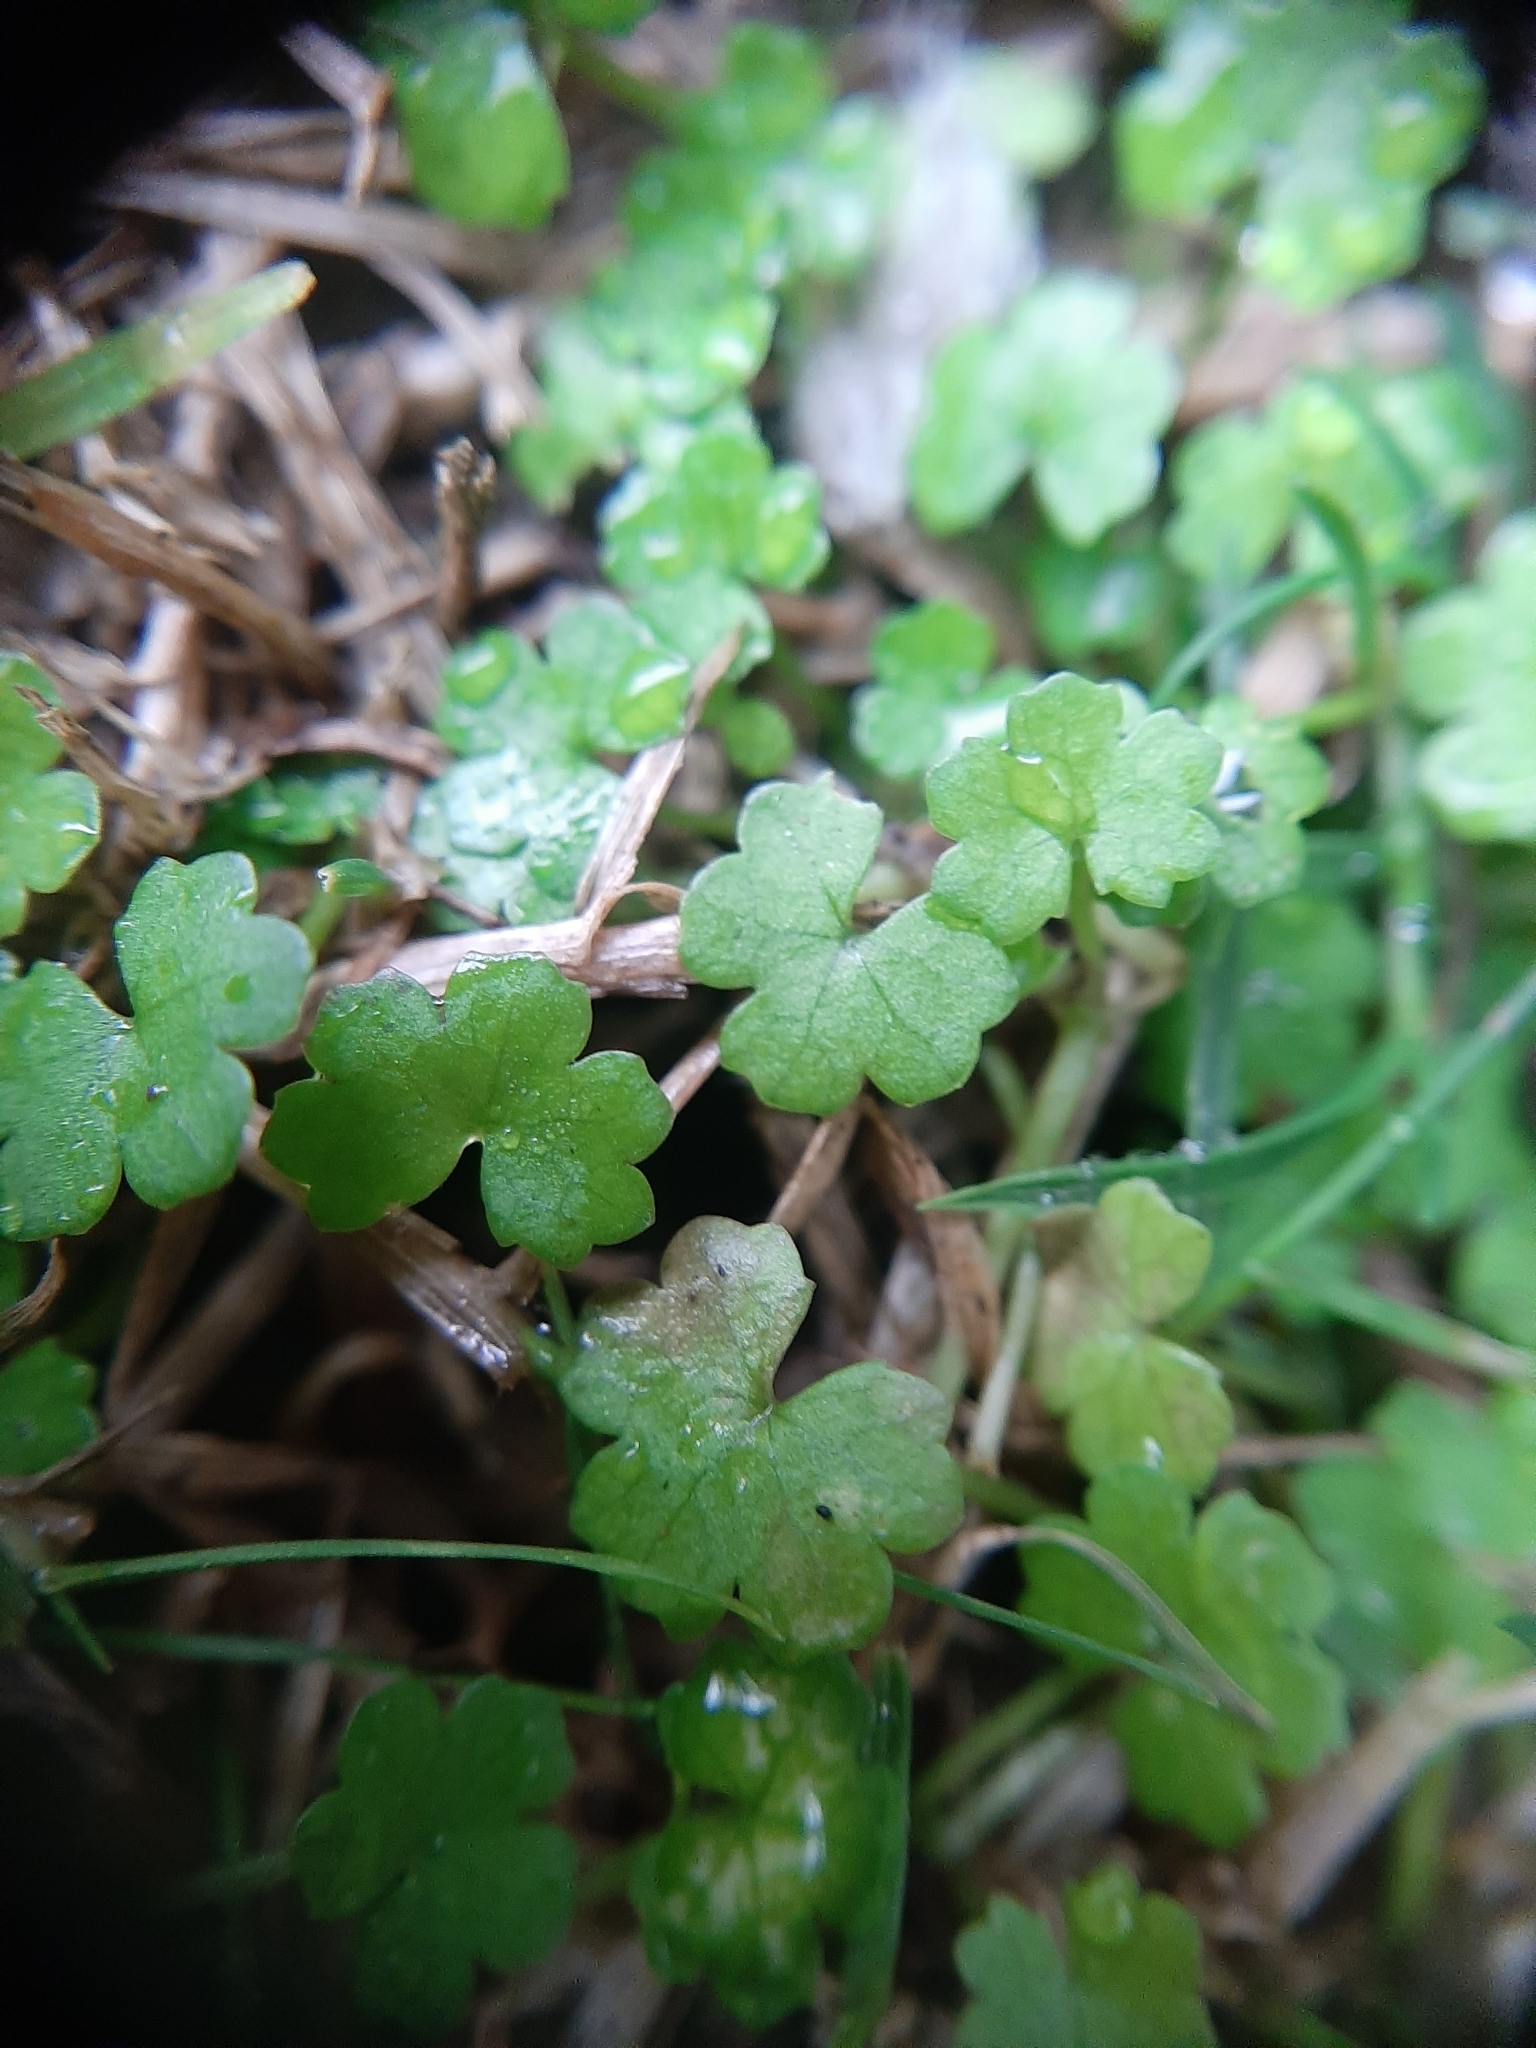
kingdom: Plantae
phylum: Tracheophyta
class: Magnoliopsida
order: Apiales
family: Araliaceae
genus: Hydrocotyle
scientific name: Hydrocotyle heteromeria
